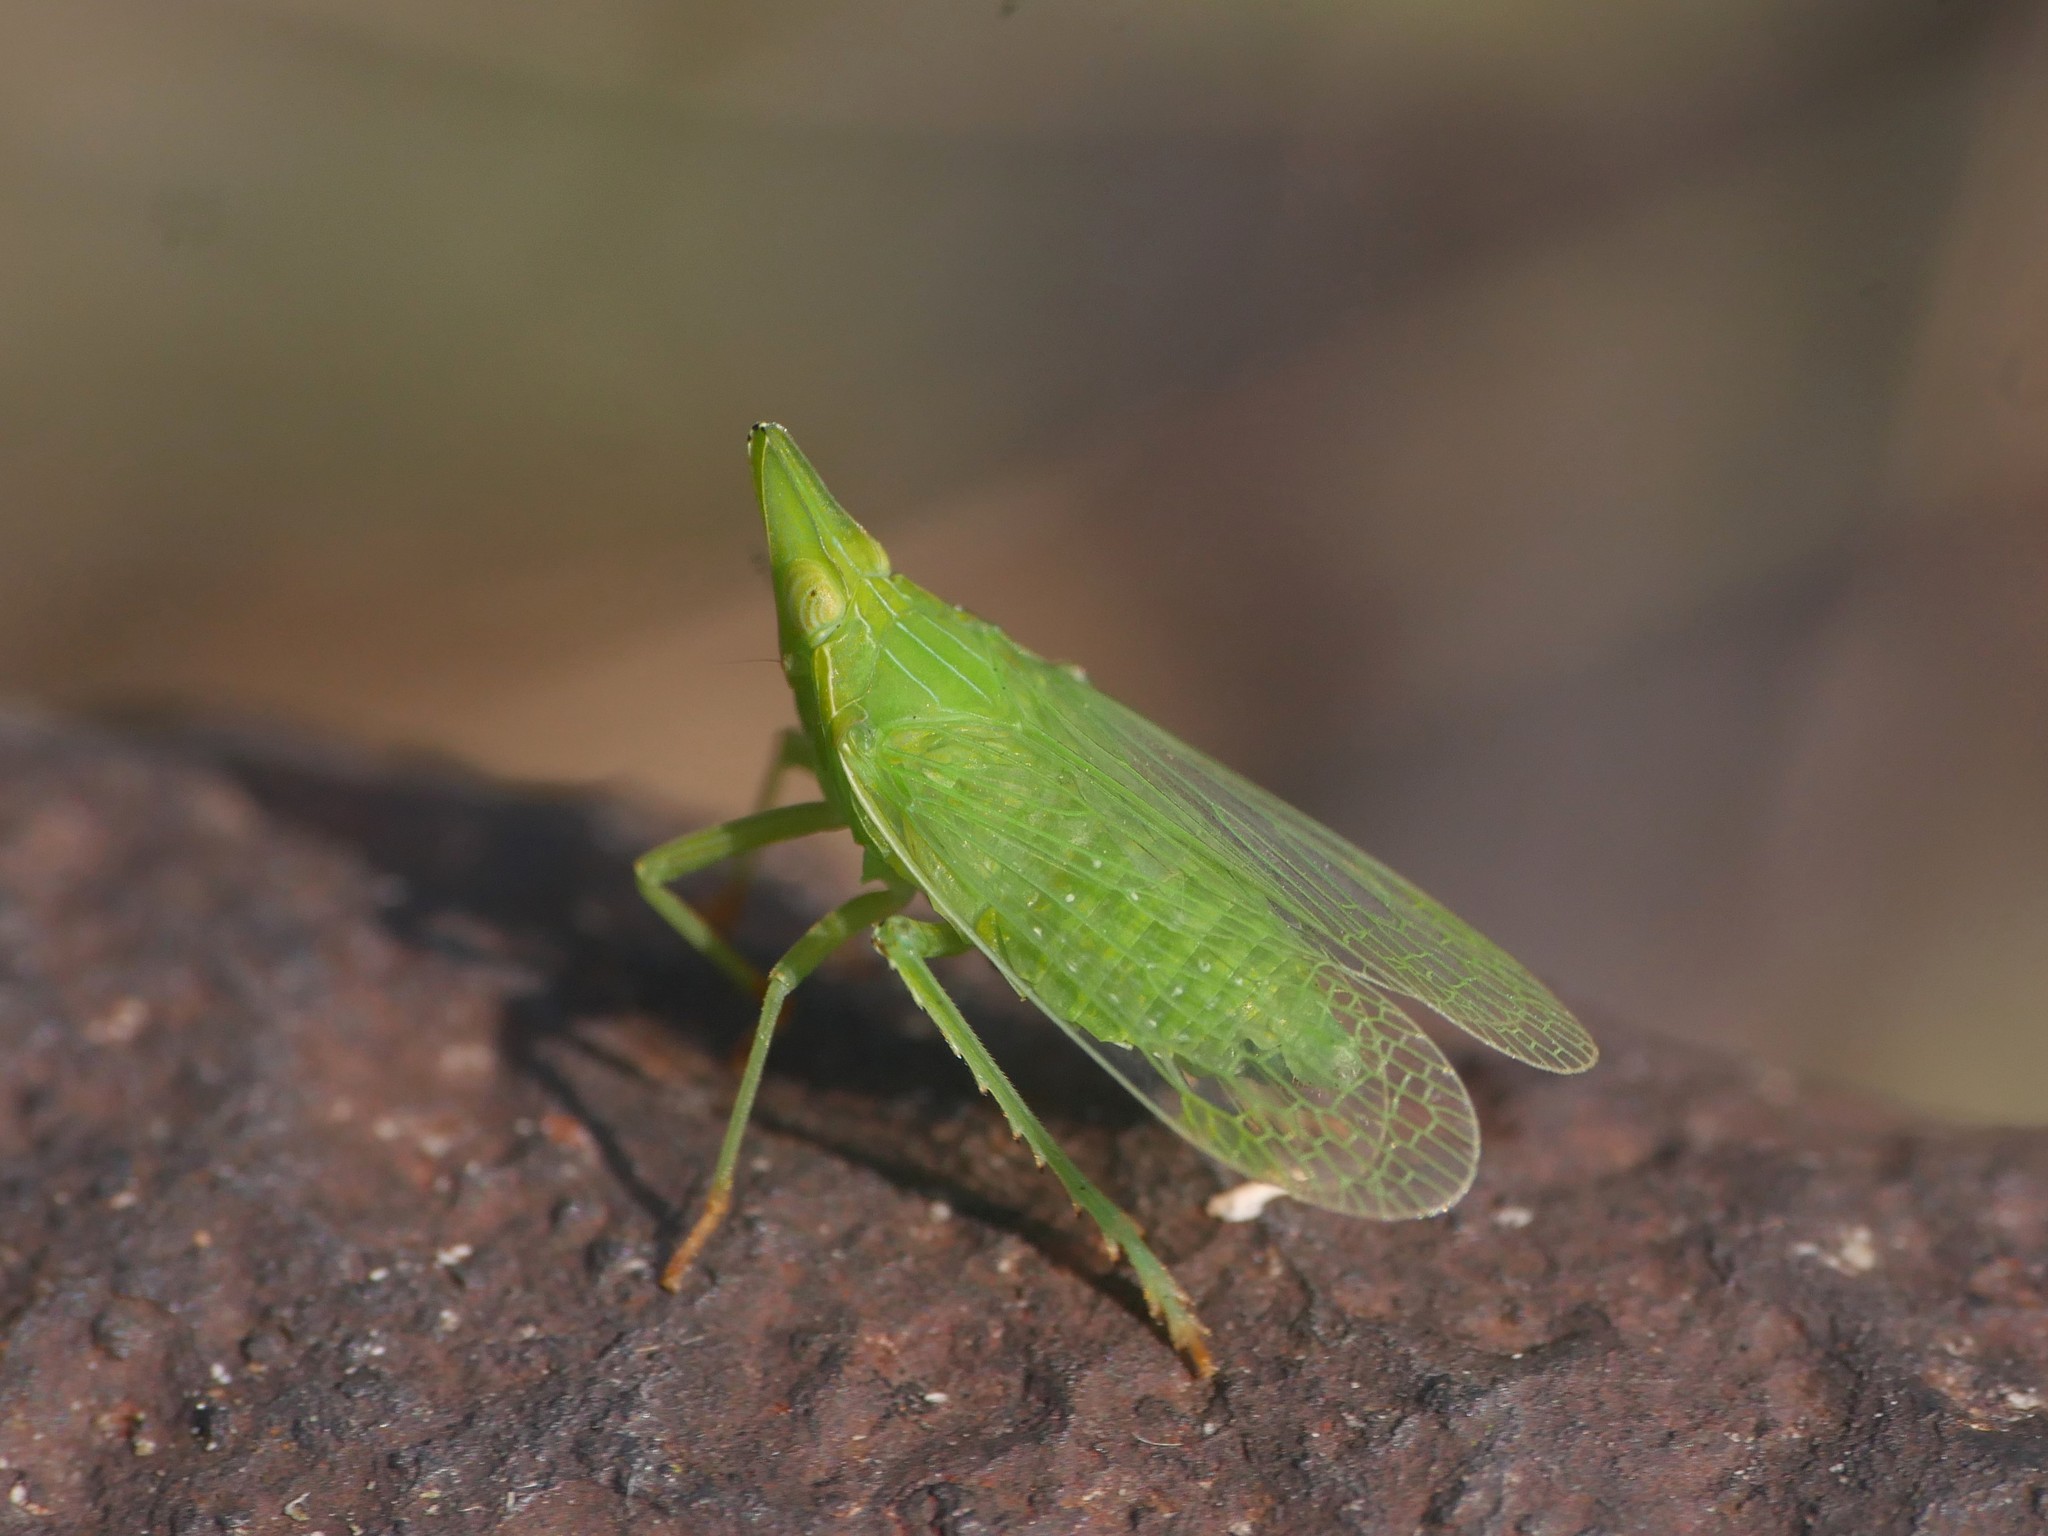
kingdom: Animalia
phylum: Arthropoda
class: Insecta
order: Hemiptera
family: Dictyopharidae
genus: Dictyophara
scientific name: Dictyophara europaea
